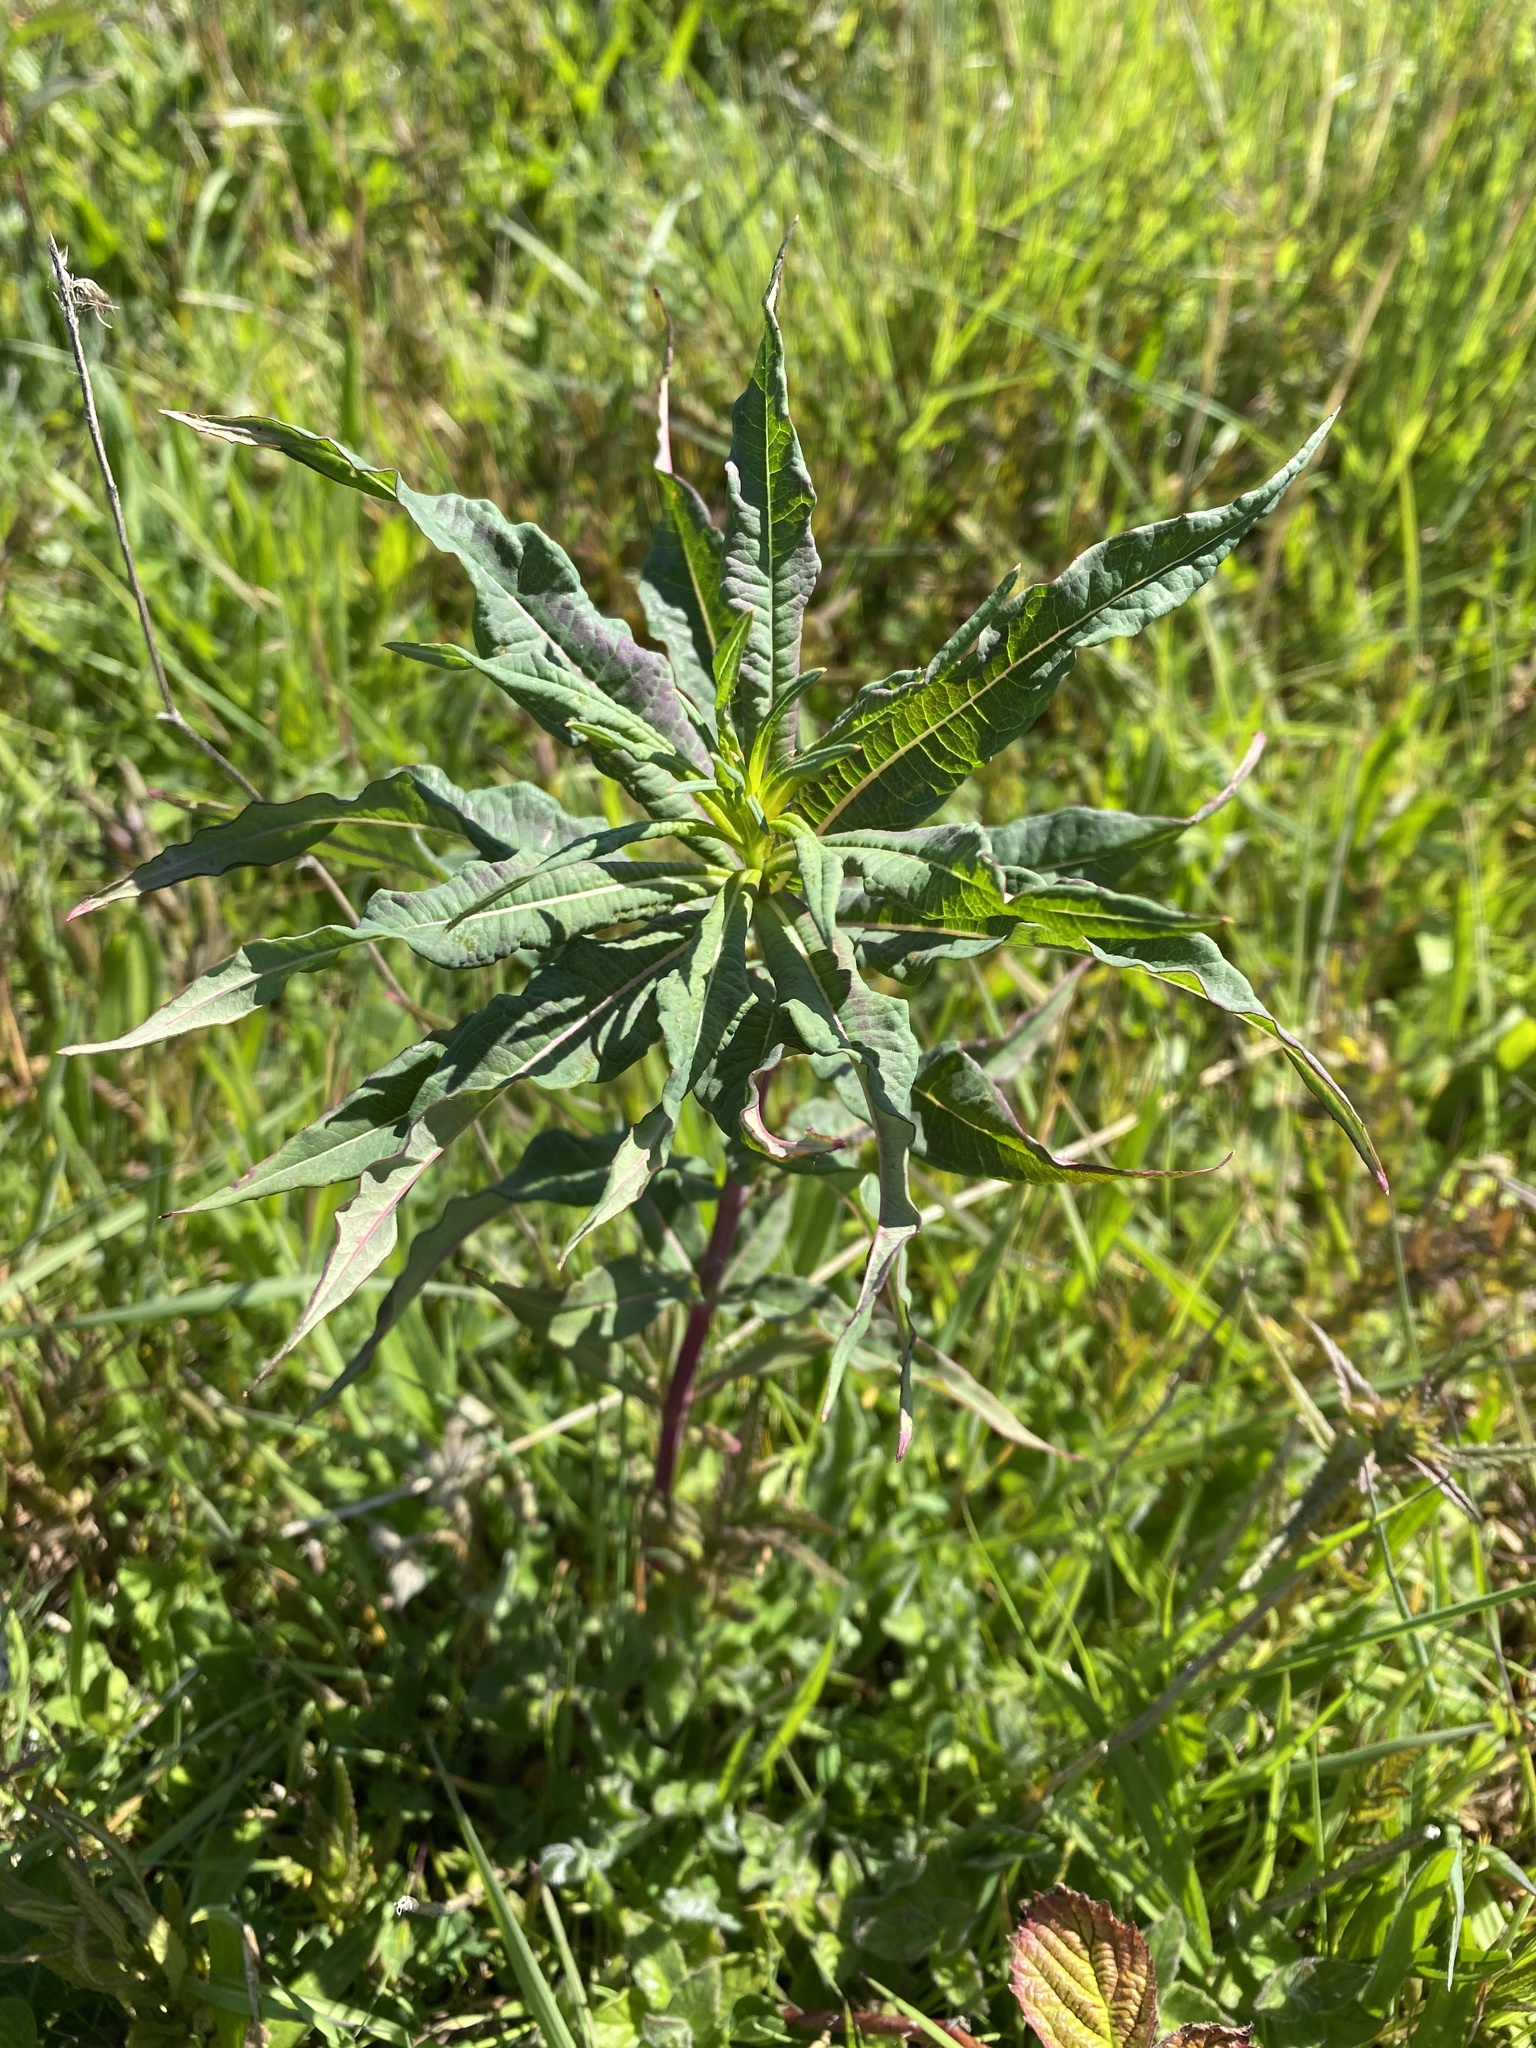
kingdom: Plantae
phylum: Tracheophyta
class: Magnoliopsida
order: Myrtales
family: Onagraceae
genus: Chamaenerion
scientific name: Chamaenerion angustifolium
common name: Fireweed
